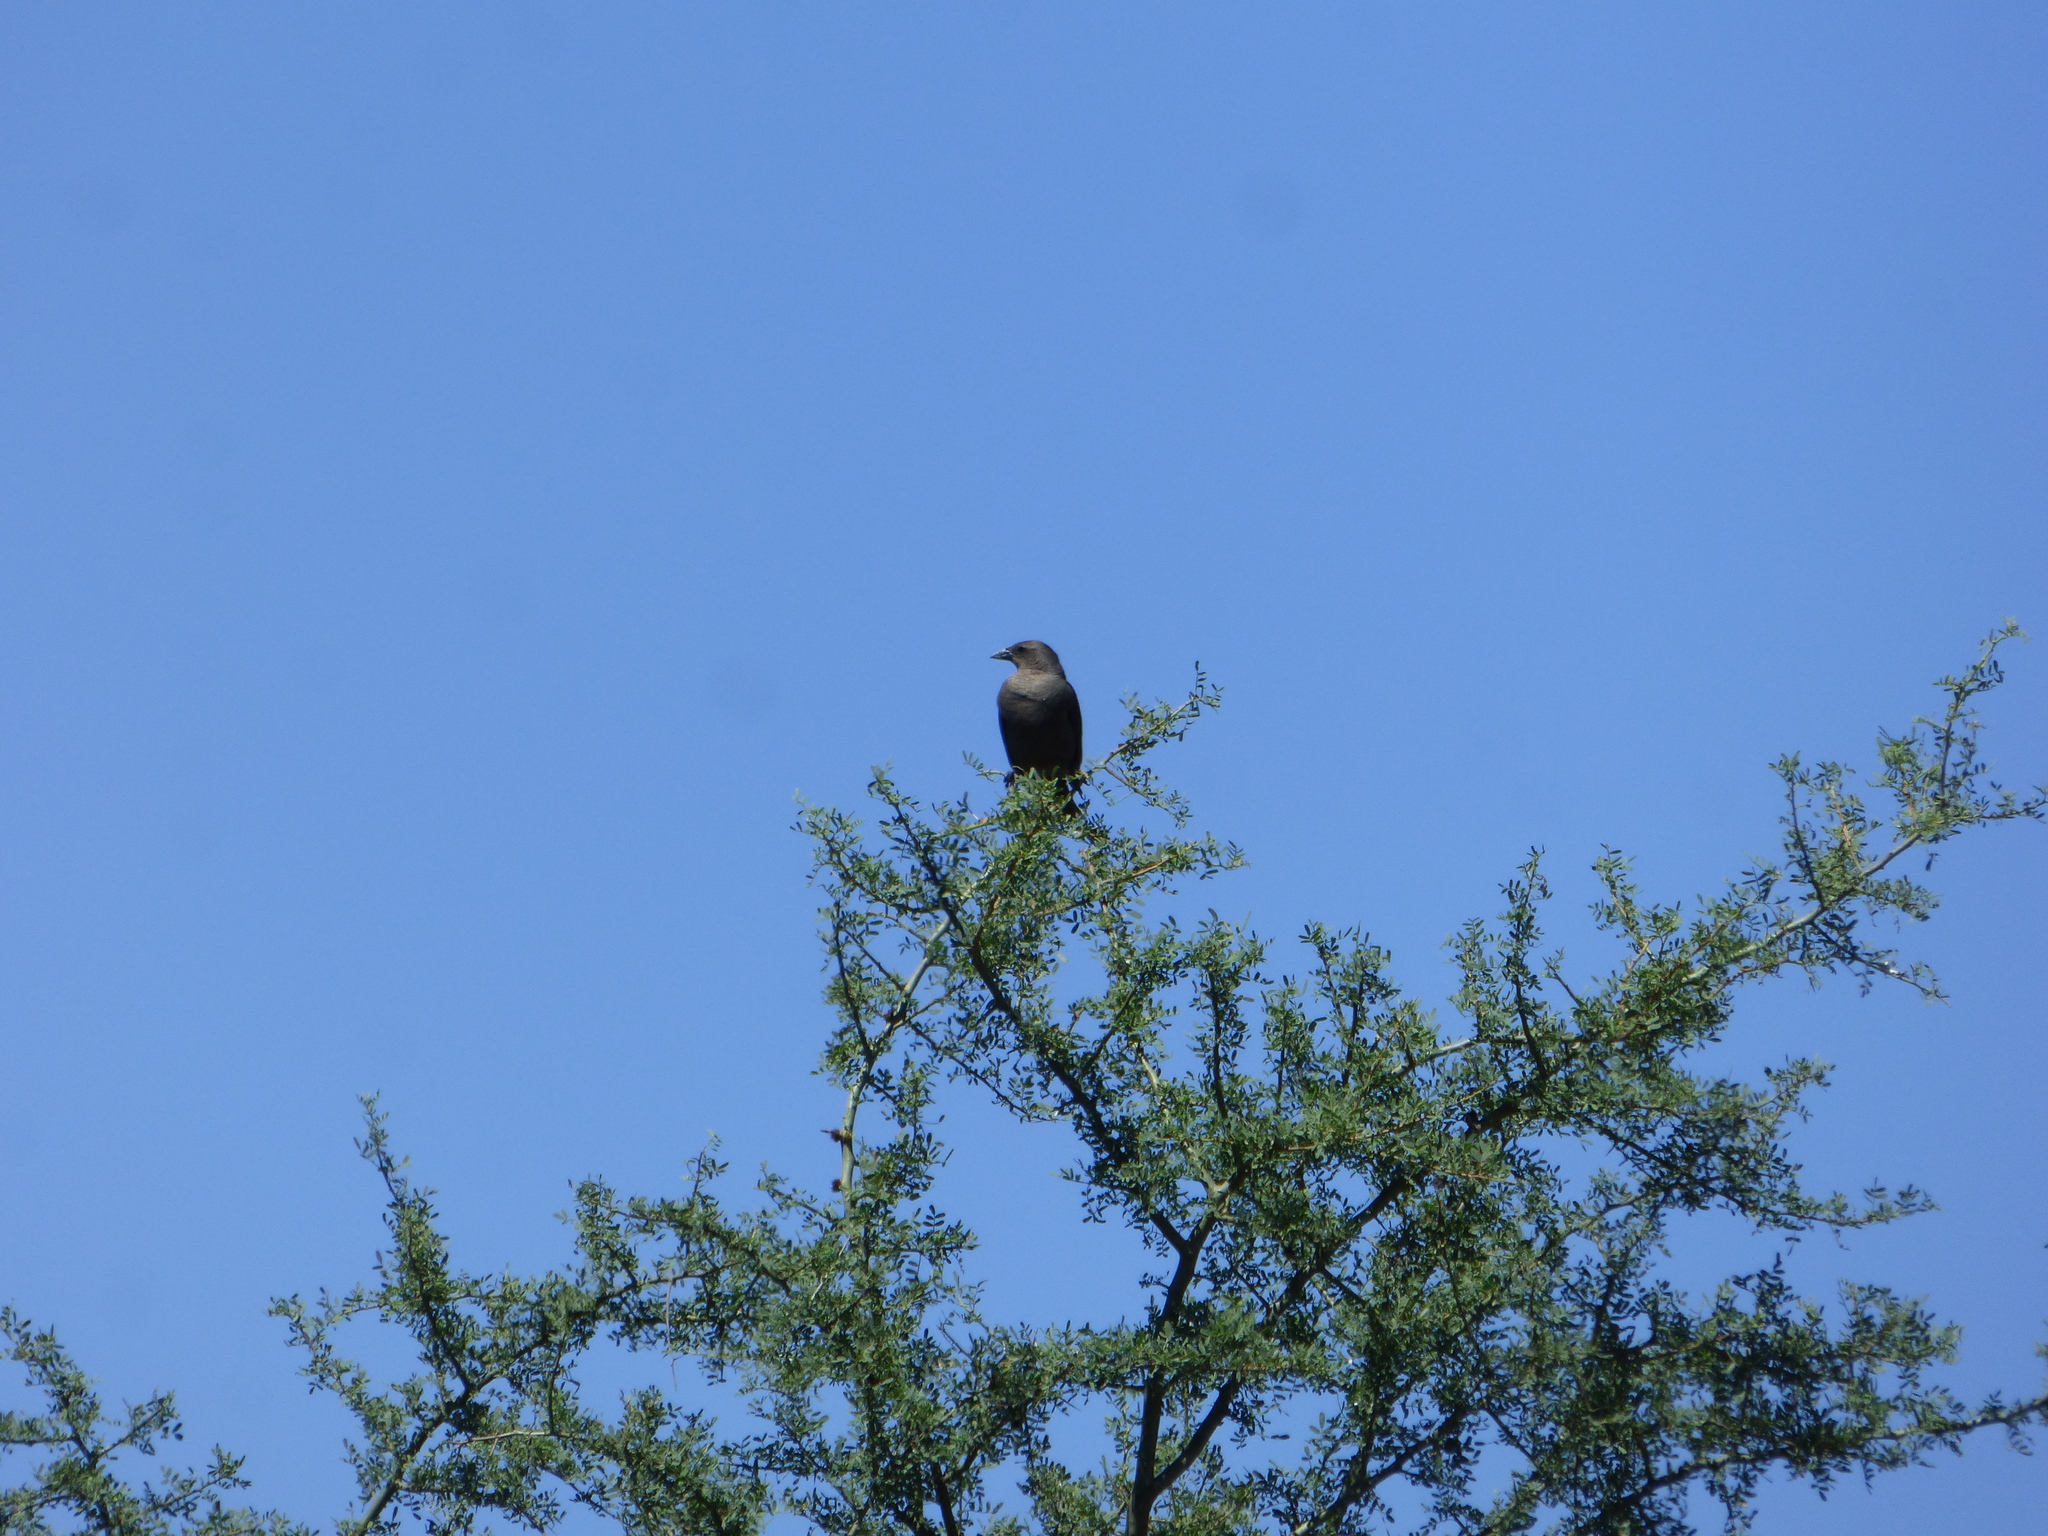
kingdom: Animalia
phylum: Chordata
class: Aves
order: Passeriformes
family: Icteridae
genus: Molothrus
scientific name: Molothrus bonariensis
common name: Shiny cowbird
